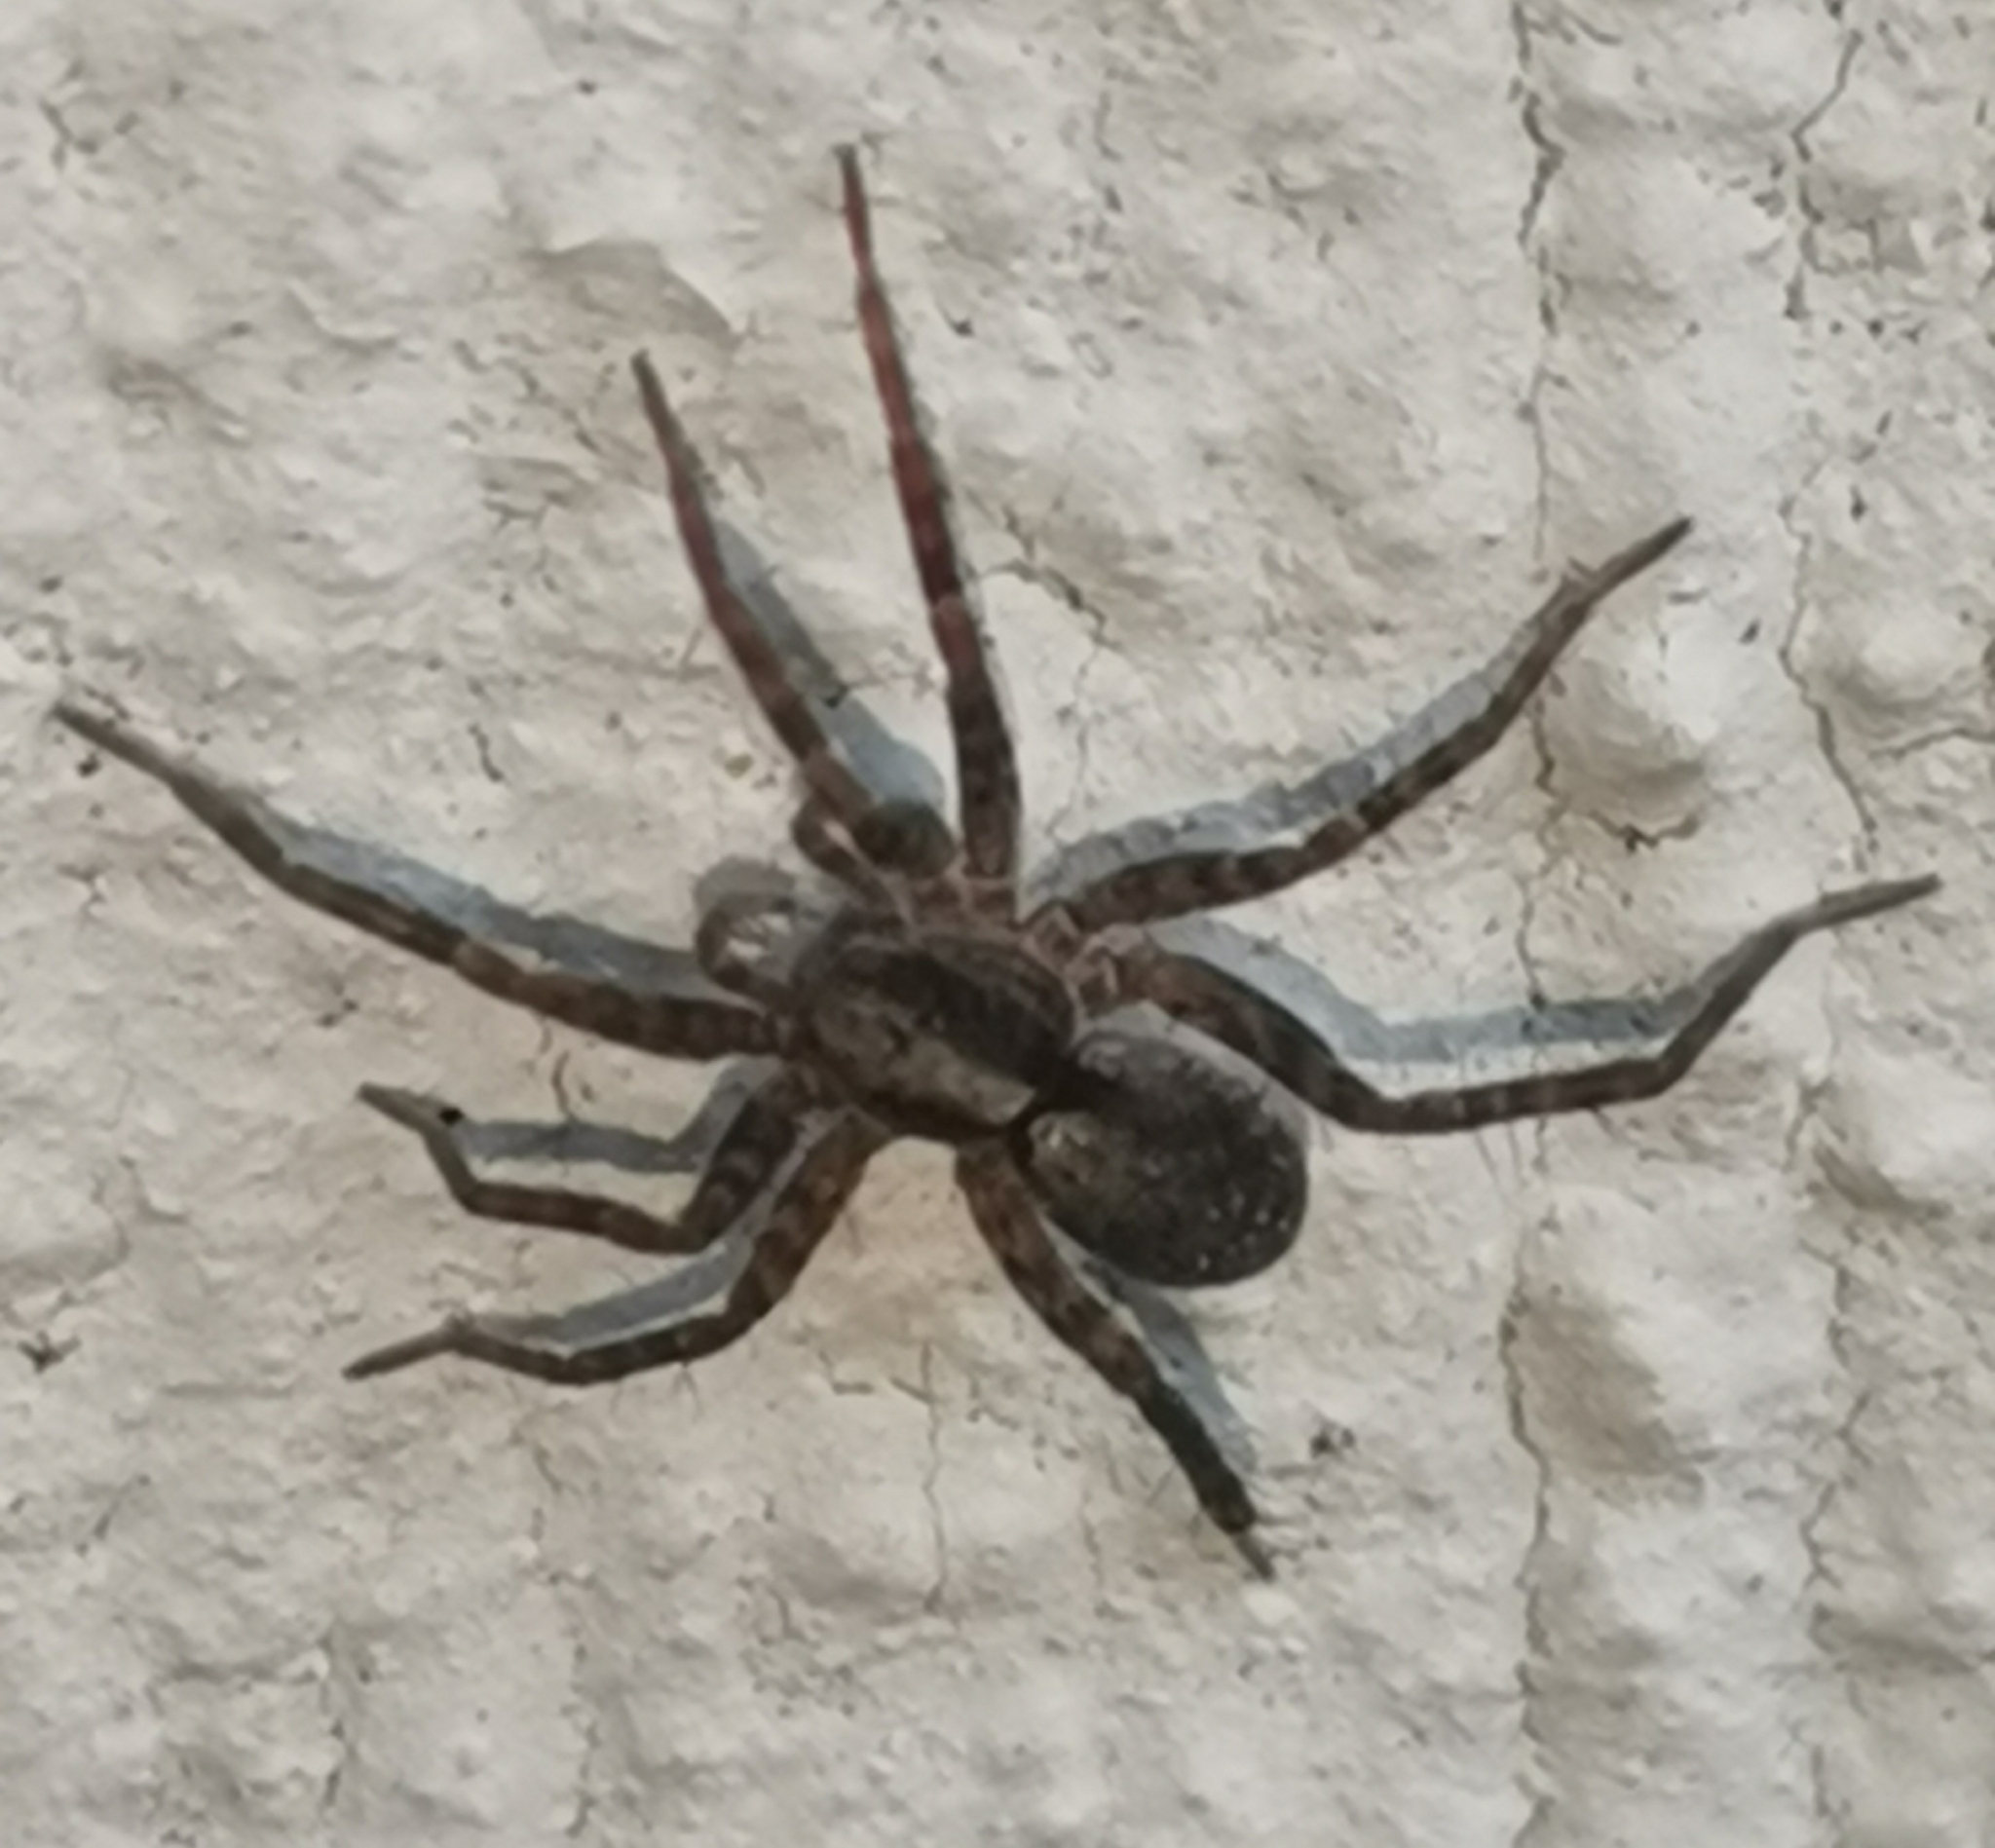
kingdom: Animalia
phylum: Arthropoda
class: Arachnida
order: Araneae
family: Lycosidae
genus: Pardosa
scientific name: Pardosa
